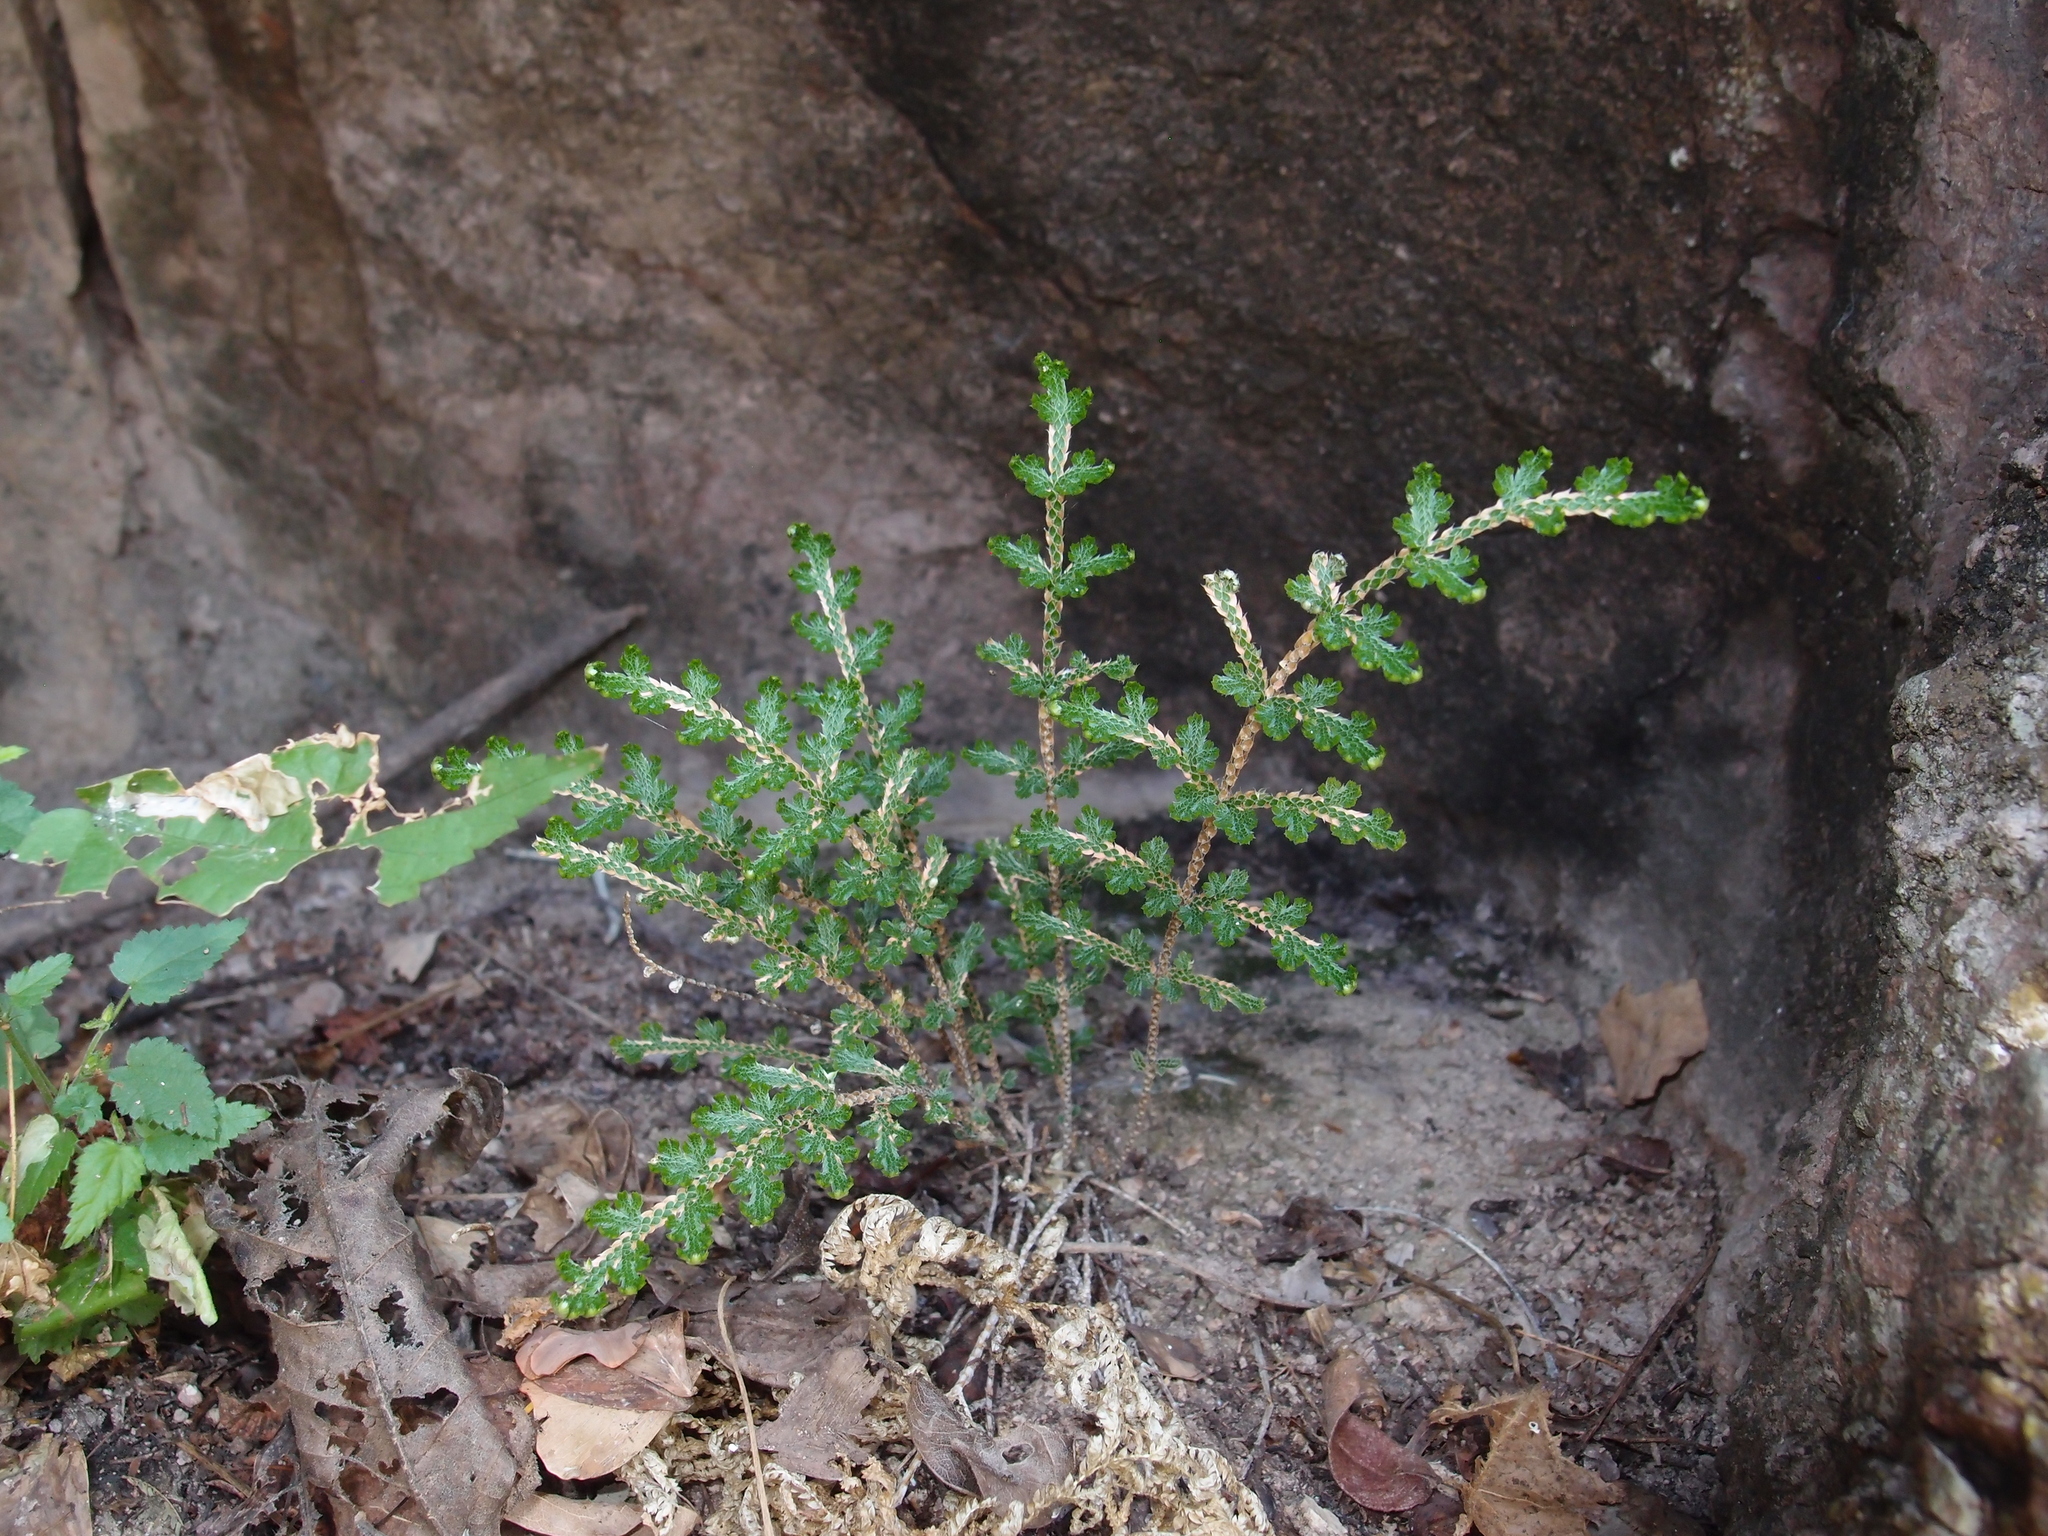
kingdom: Plantae
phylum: Tracheophyta
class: Lycopodiopsida
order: Selaginellales
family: Selaginellaceae
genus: Selaginella
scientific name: Selaginella pallescens
